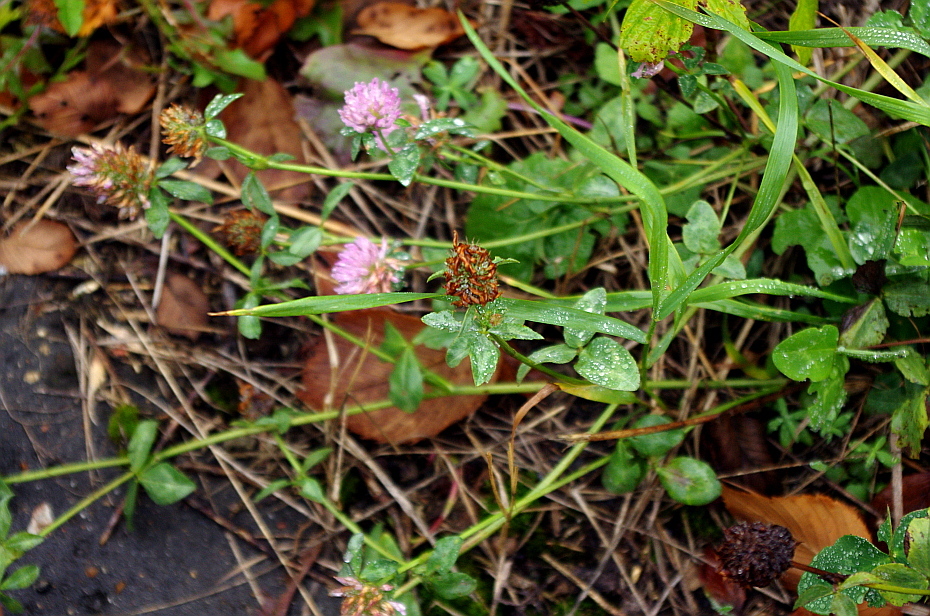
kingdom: Plantae
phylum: Tracheophyta
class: Magnoliopsida
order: Fabales
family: Fabaceae
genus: Trifolium
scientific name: Trifolium pratense
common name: Red clover
